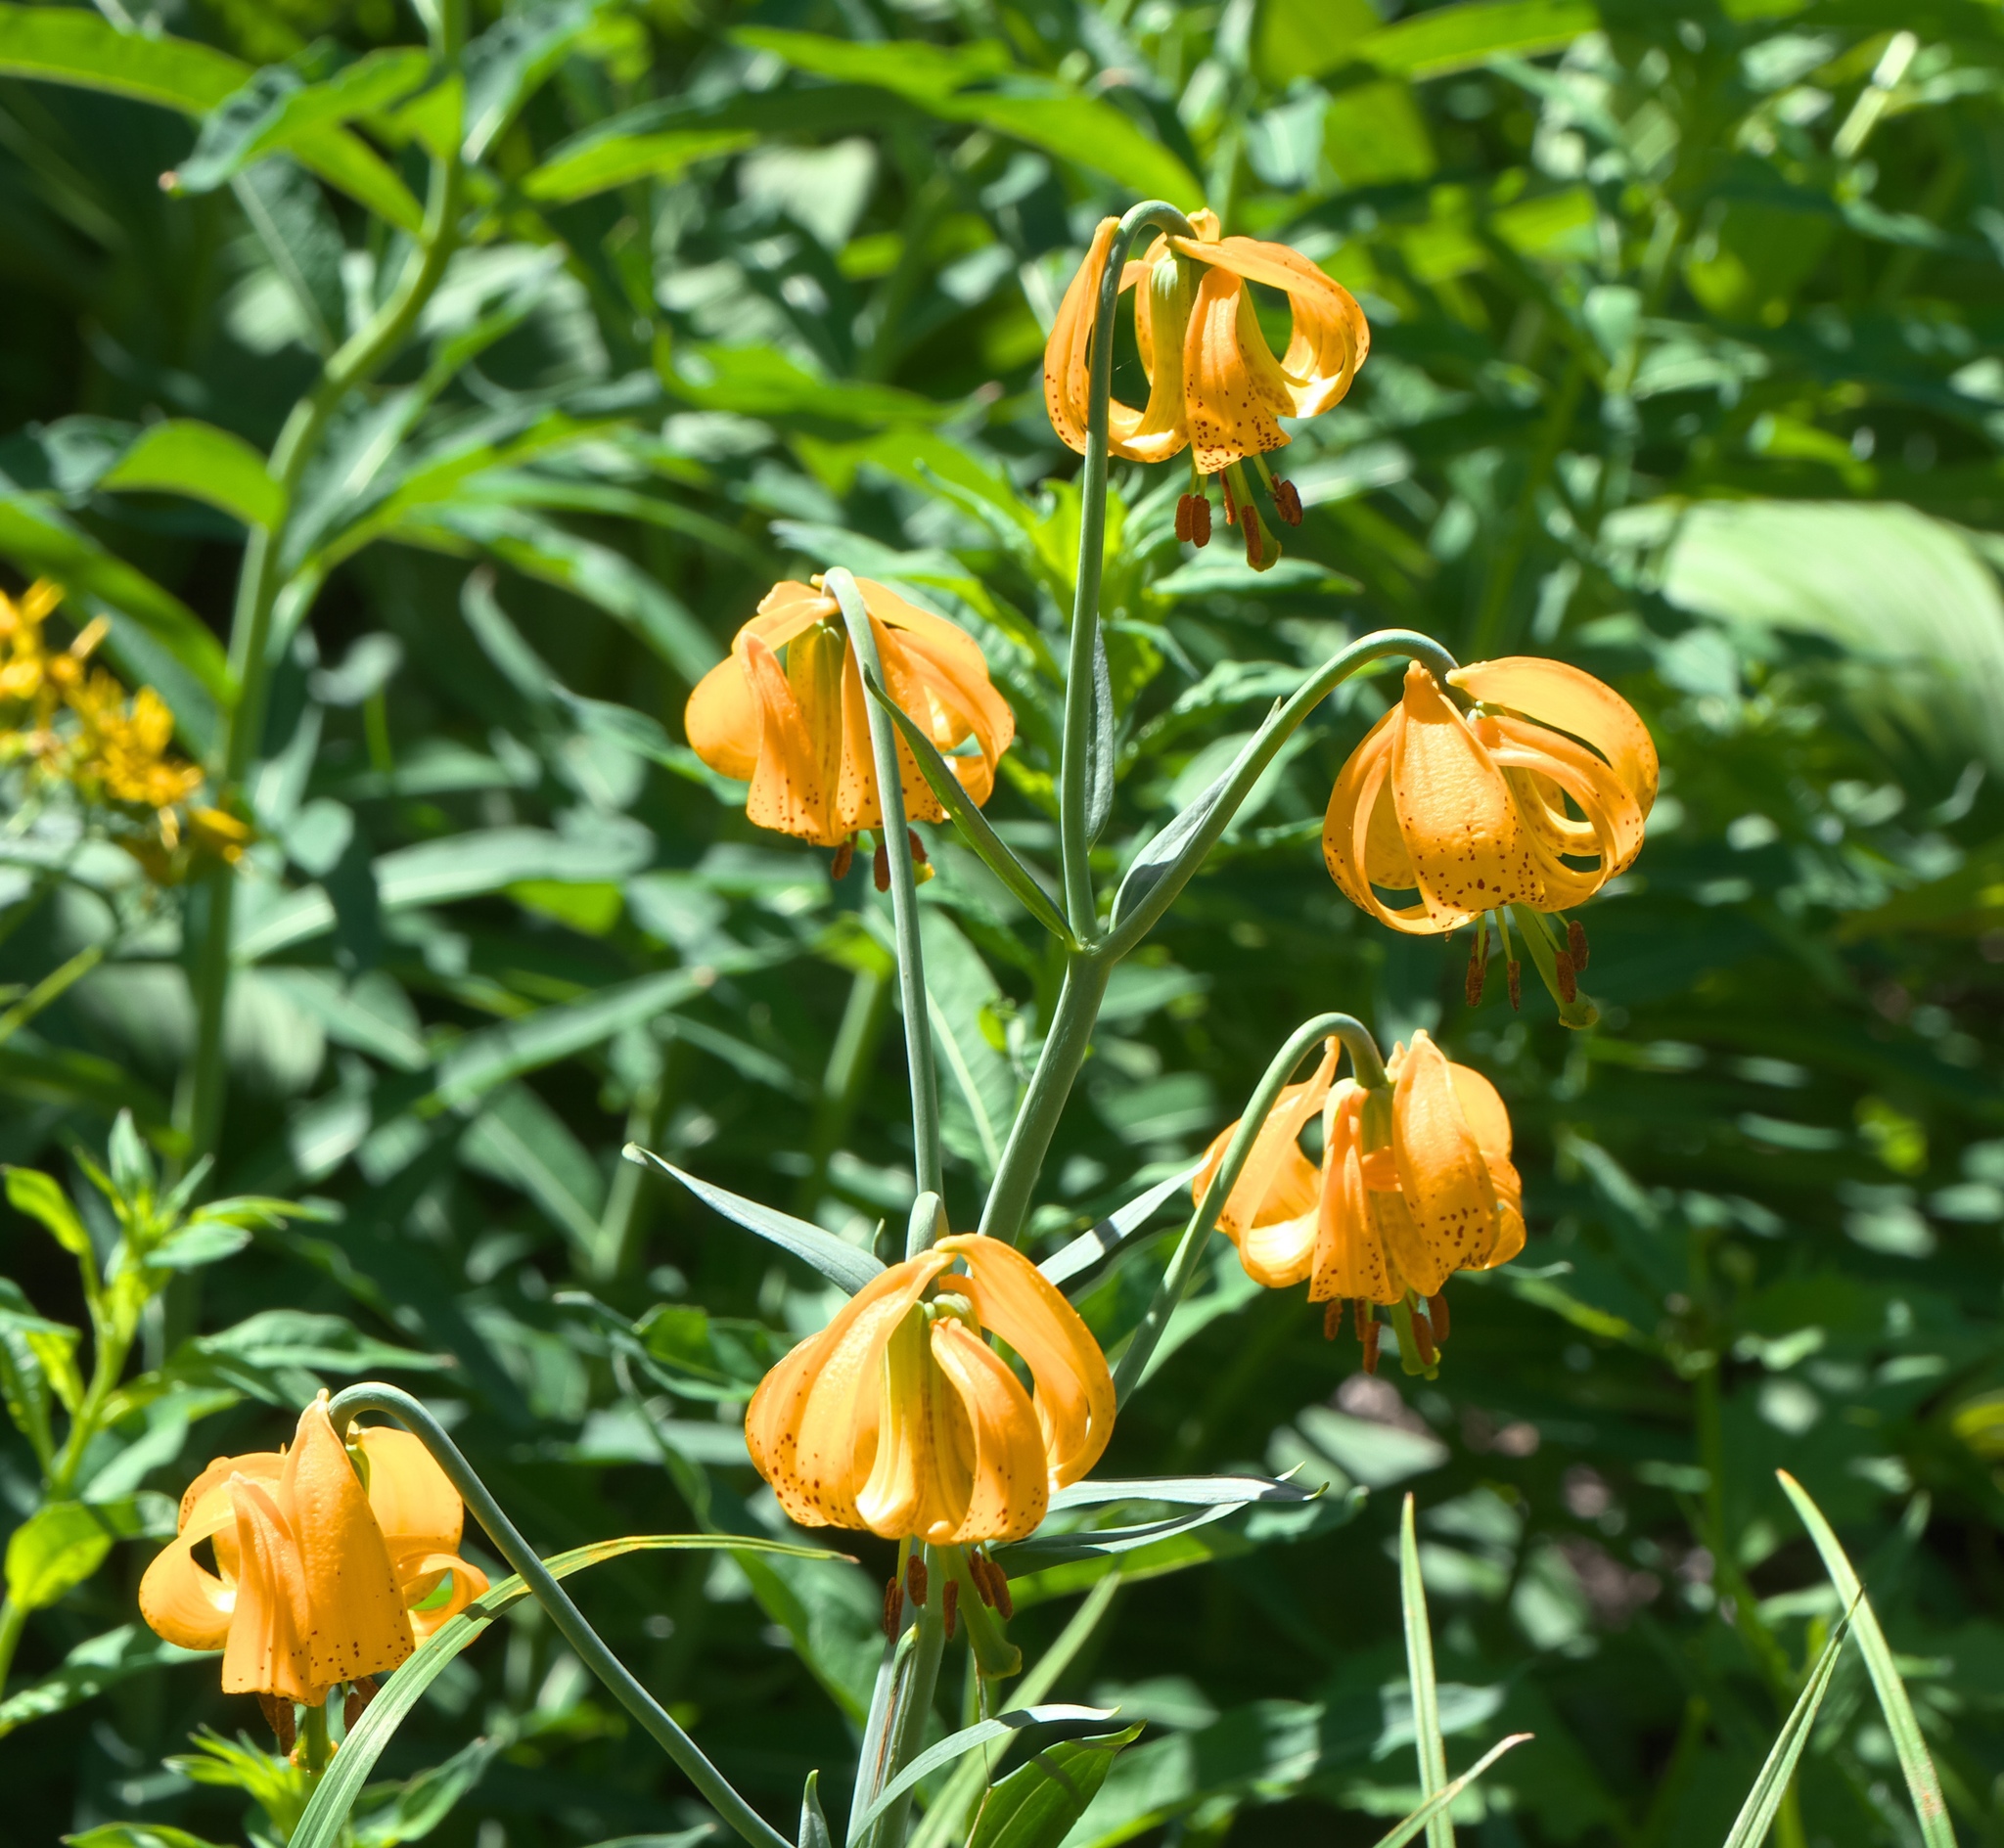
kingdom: Plantae
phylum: Tracheophyta
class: Liliopsida
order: Liliales
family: Liliaceae
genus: Lilium
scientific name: Lilium columbianum
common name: Columbia lily
